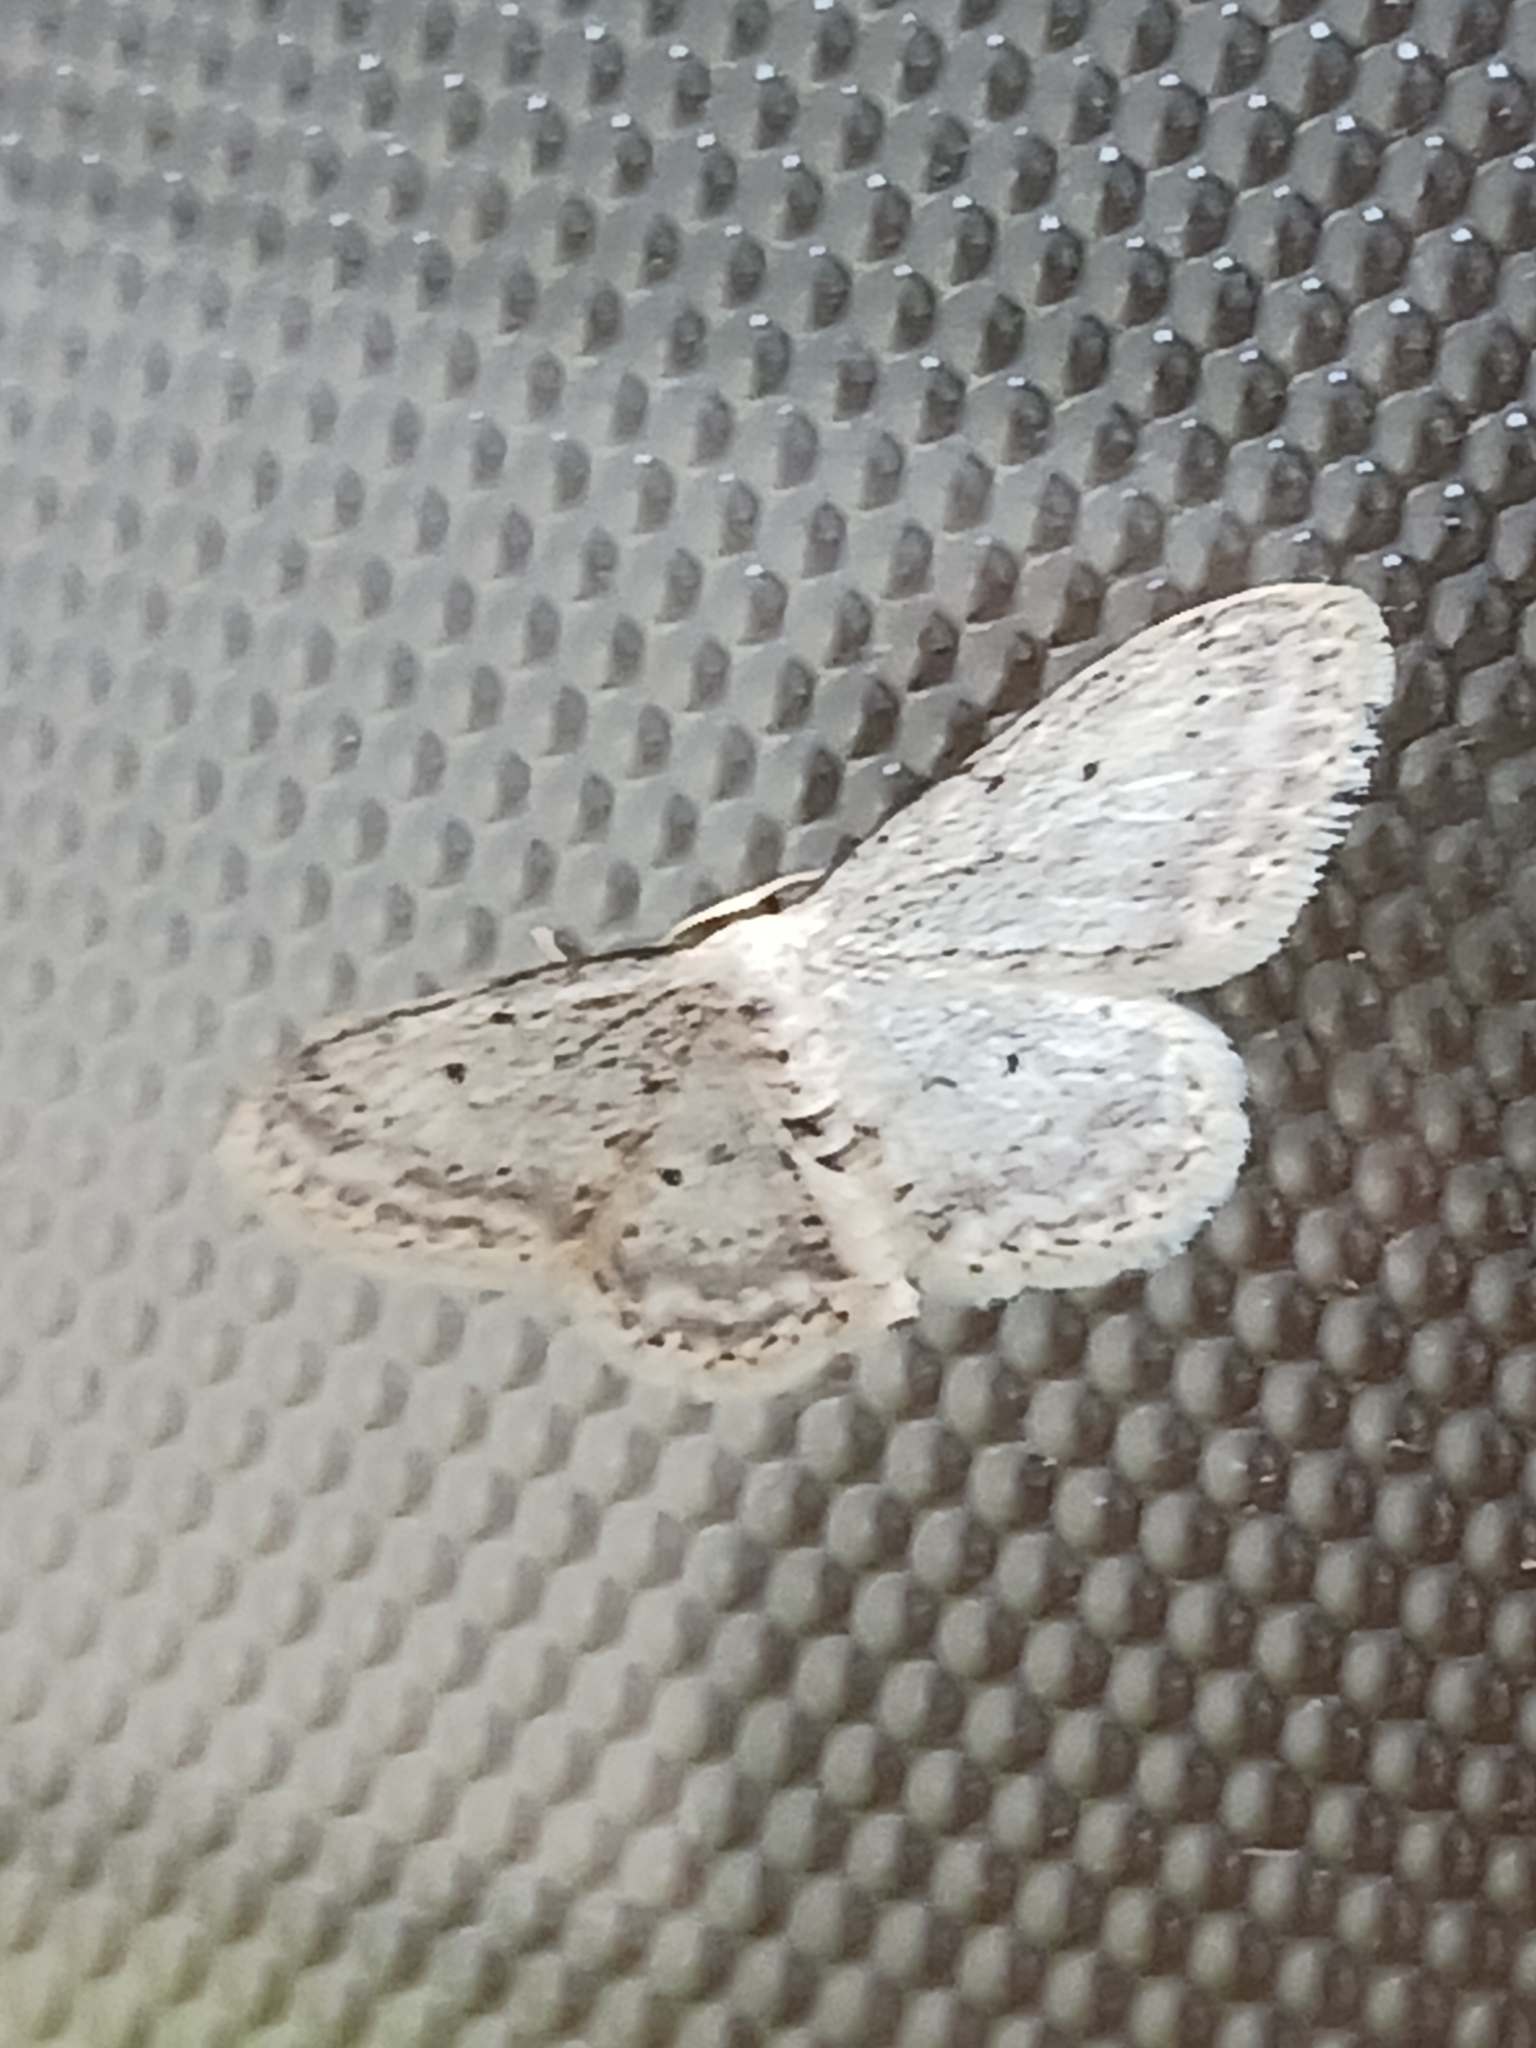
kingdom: Animalia
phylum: Arthropoda
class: Insecta
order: Lepidoptera
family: Geometridae
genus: Idaea
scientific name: Idaea seriata
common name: Small dusty wave
